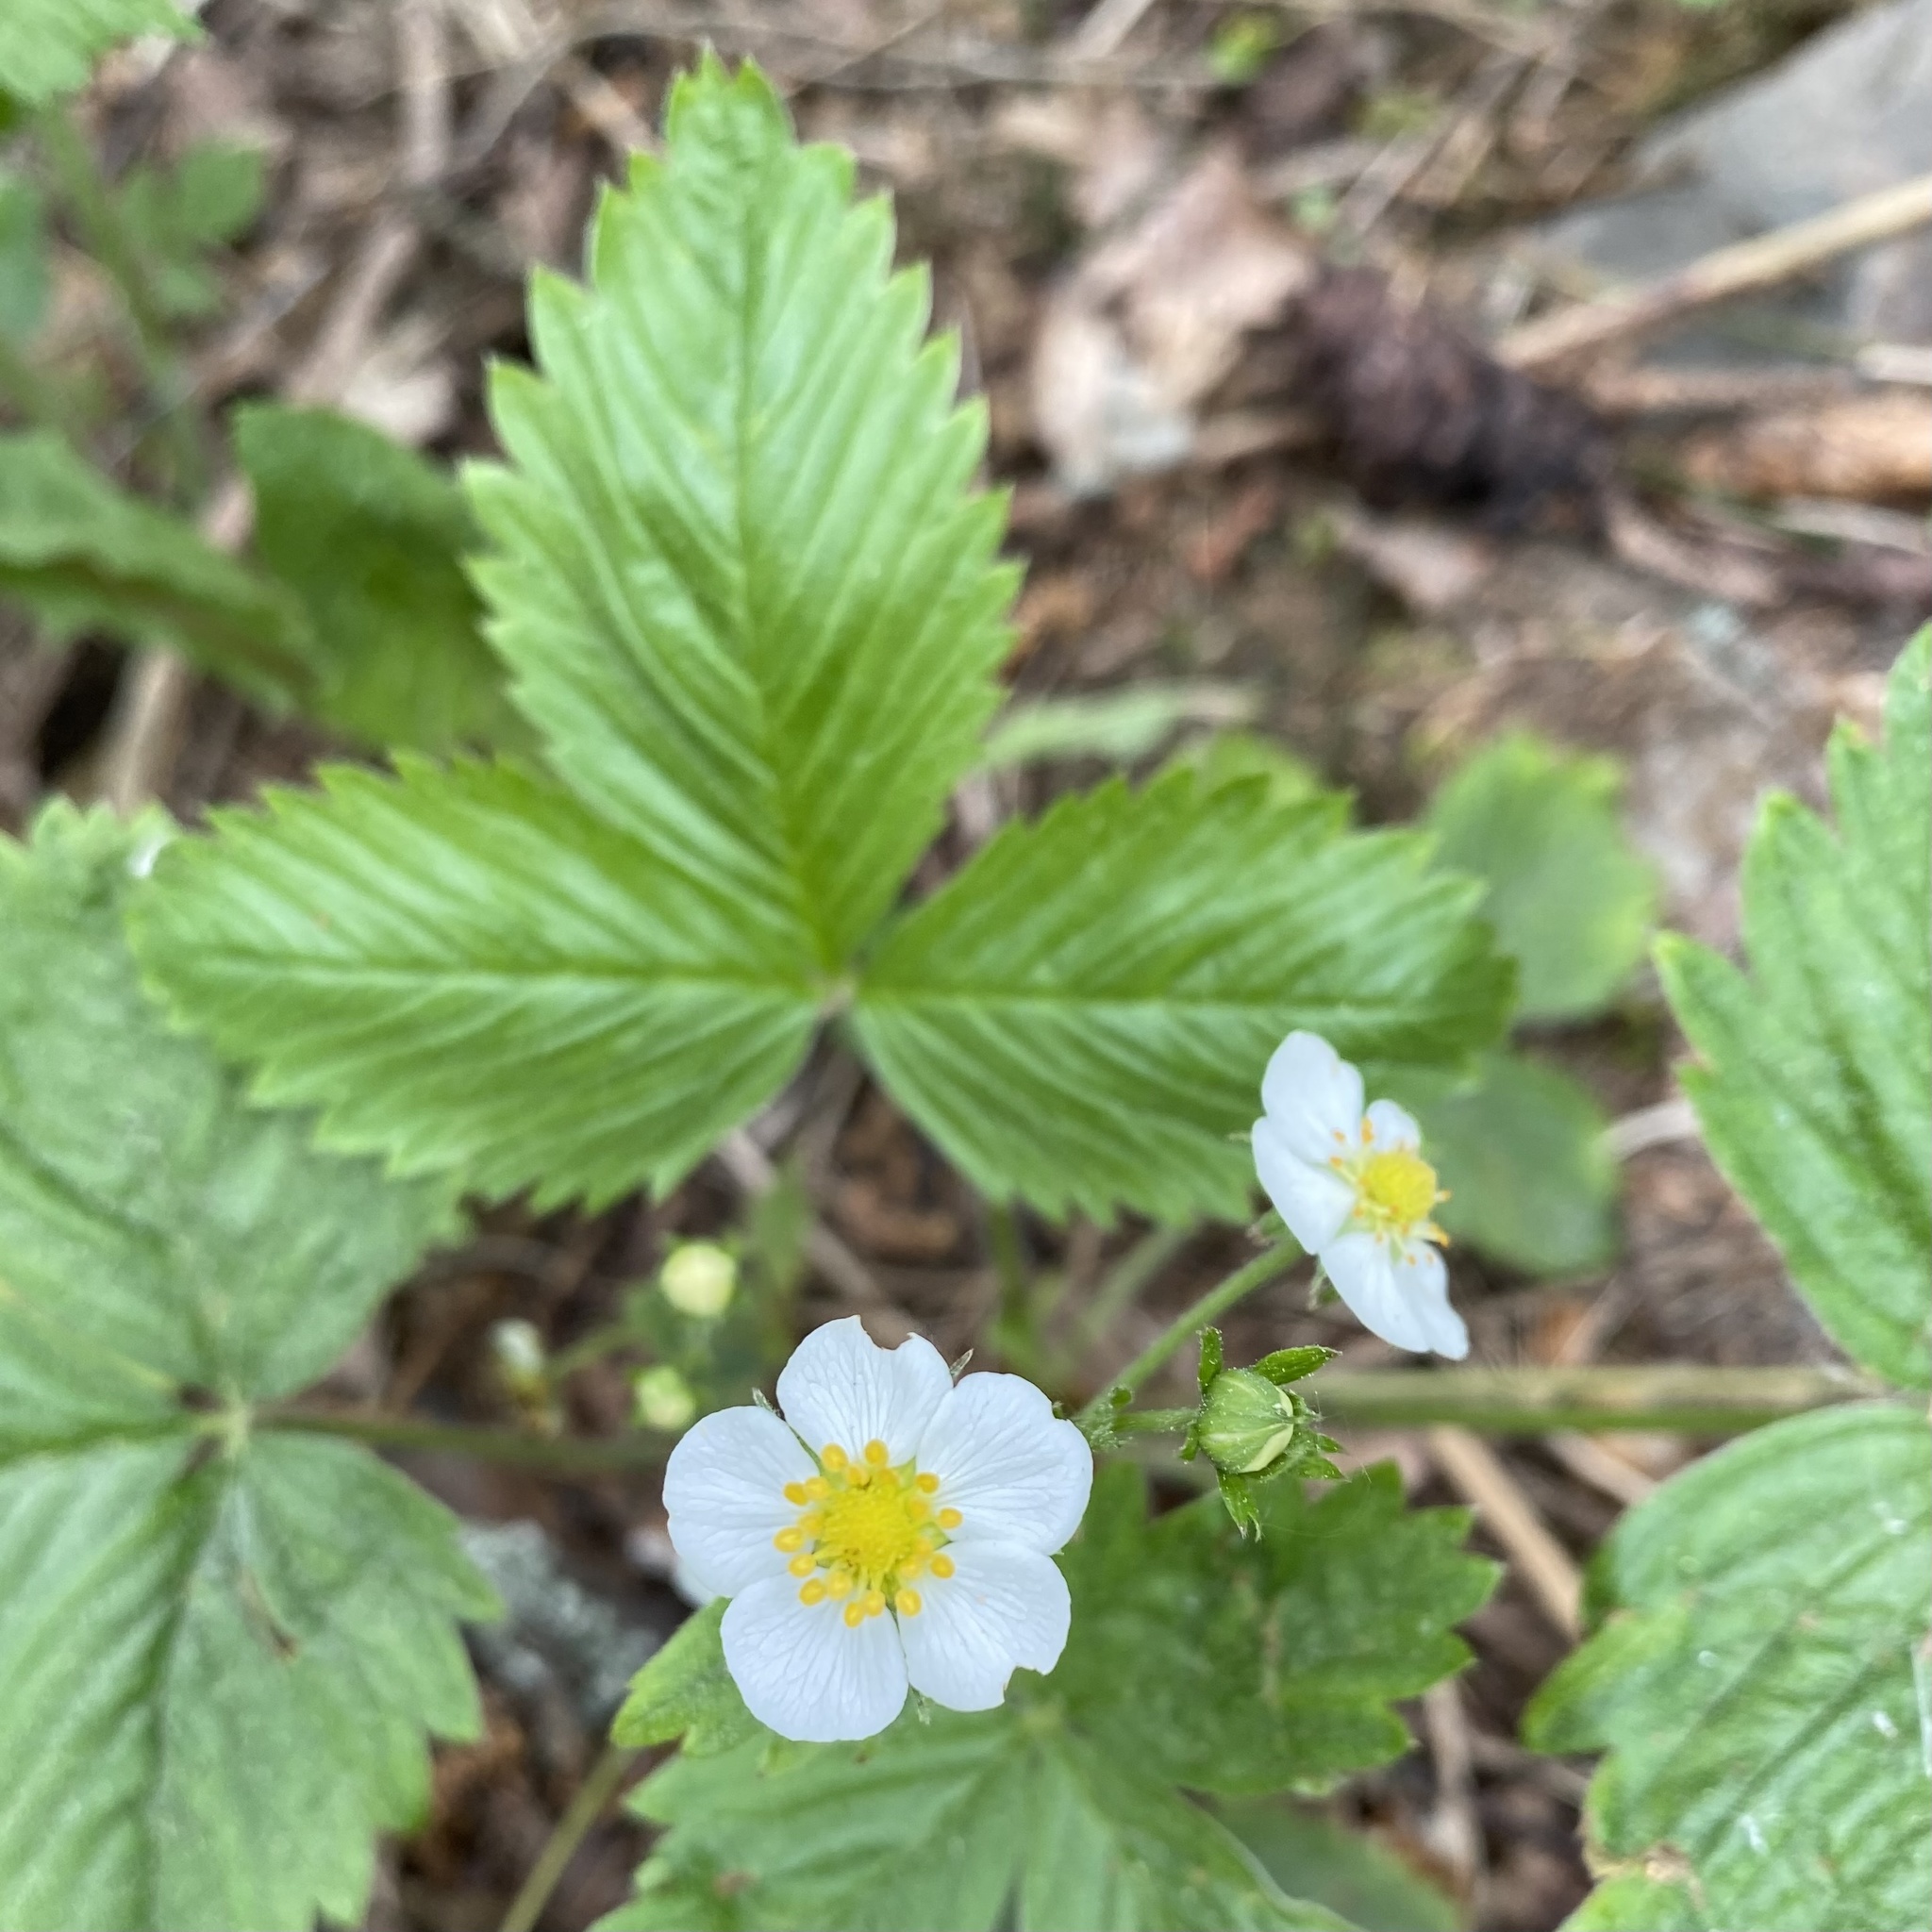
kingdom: Plantae
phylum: Tracheophyta
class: Magnoliopsida
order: Rosales
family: Rosaceae
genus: Fragaria
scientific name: Fragaria vesca
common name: Wild strawberry
